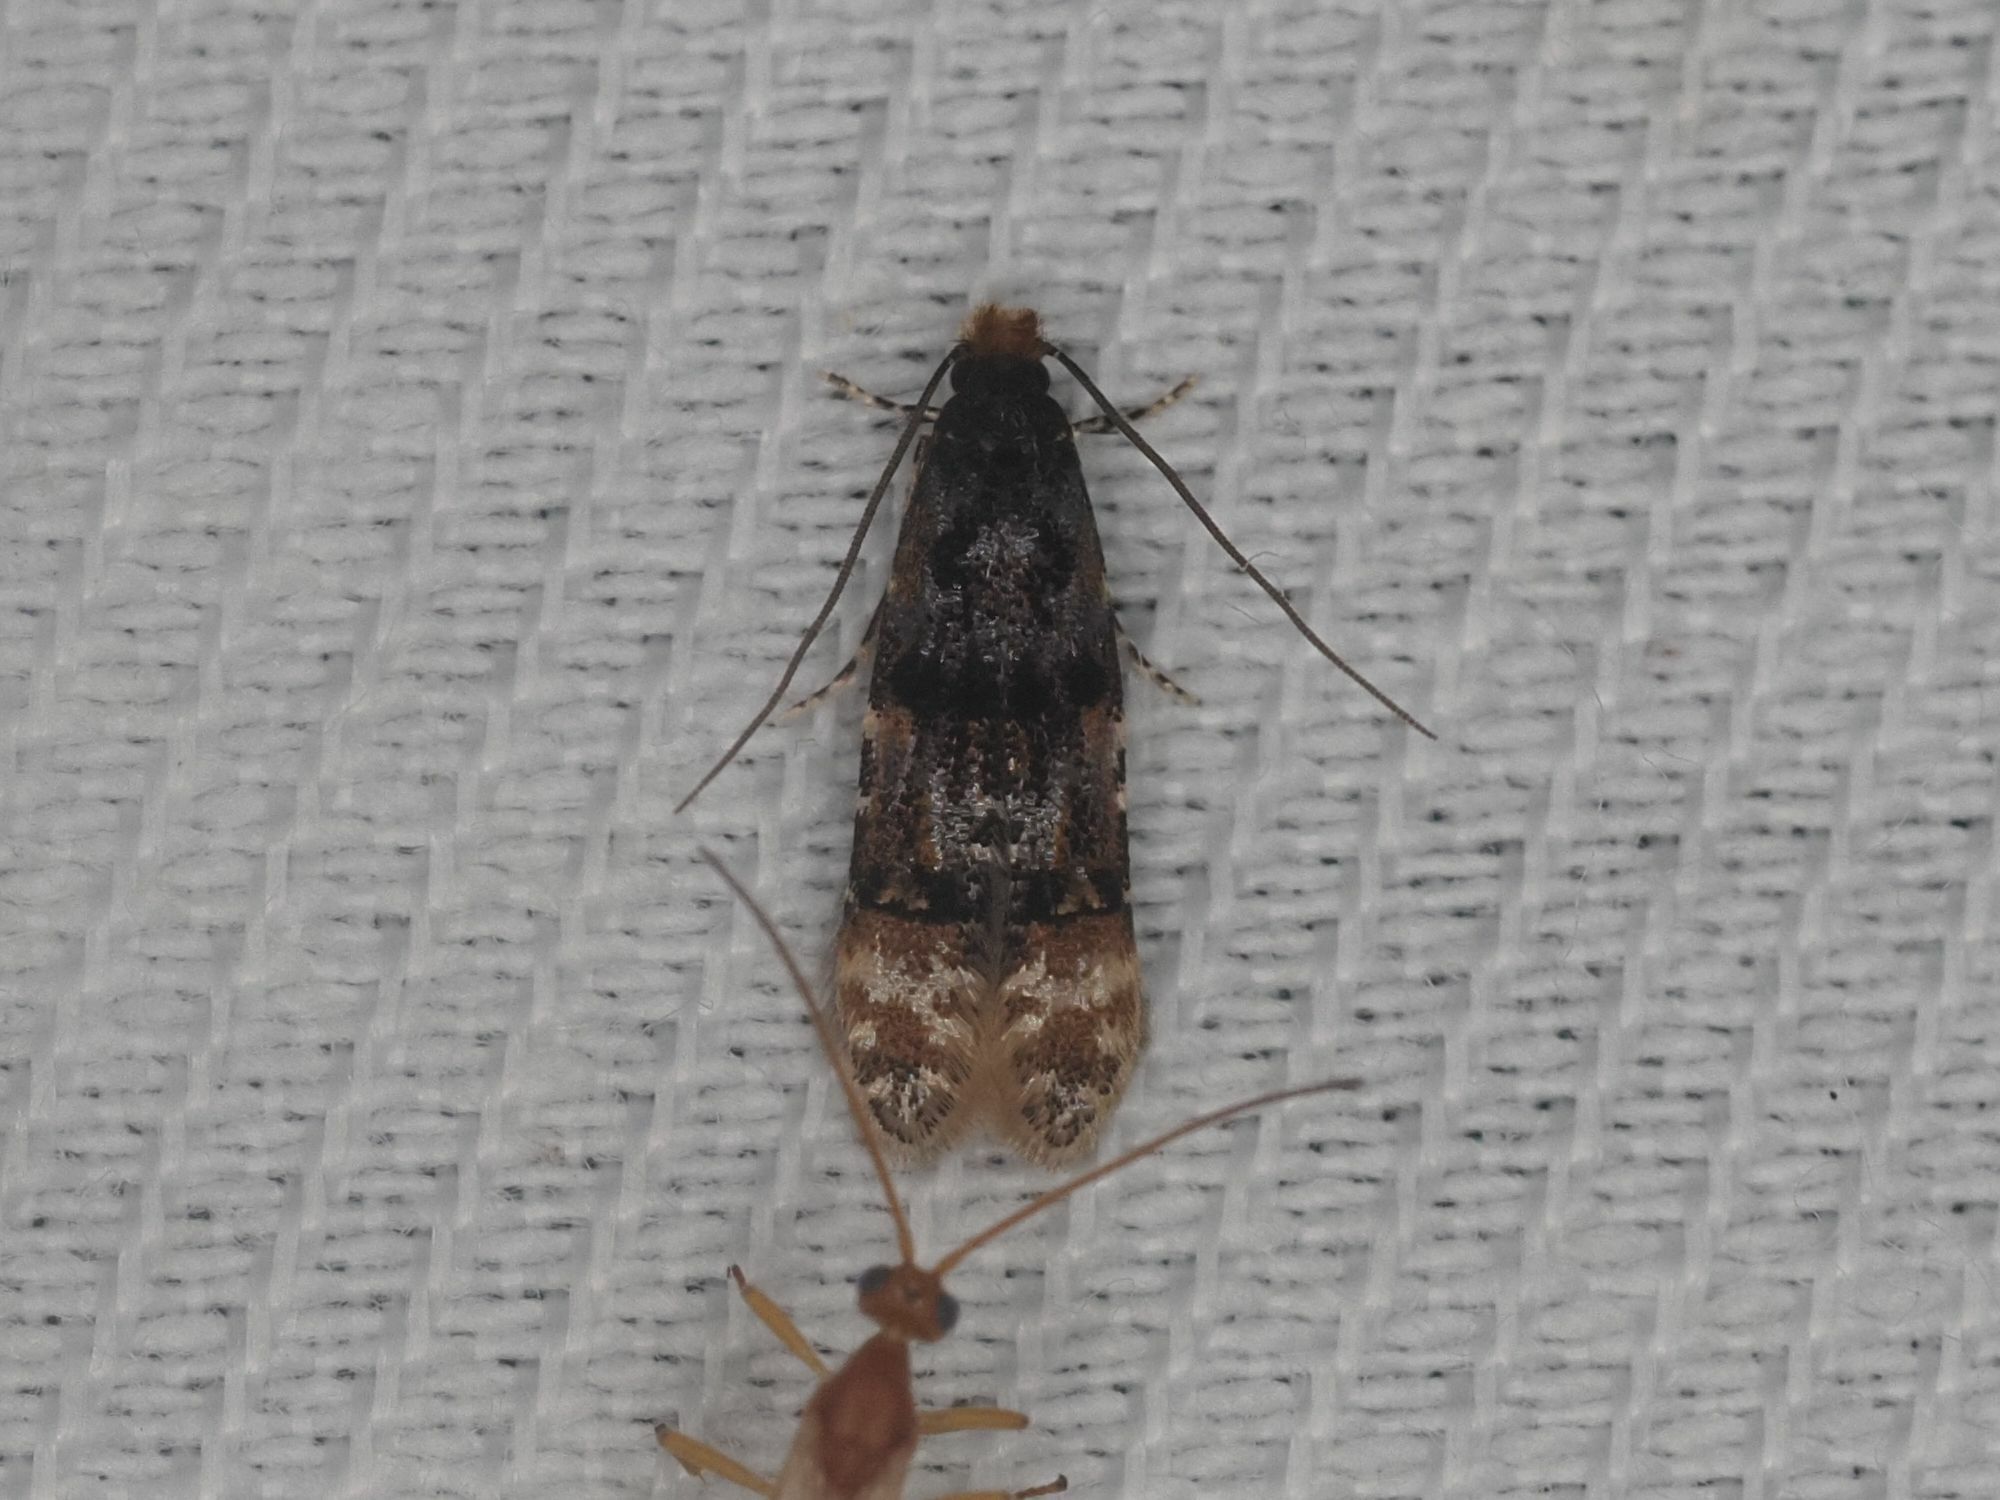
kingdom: Animalia
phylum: Arthropoda
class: Insecta
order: Lepidoptera
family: Meessiidae
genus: Stenoptinea
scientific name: Stenoptinea cyaneimarmorella
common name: Barred brown clothes moth
